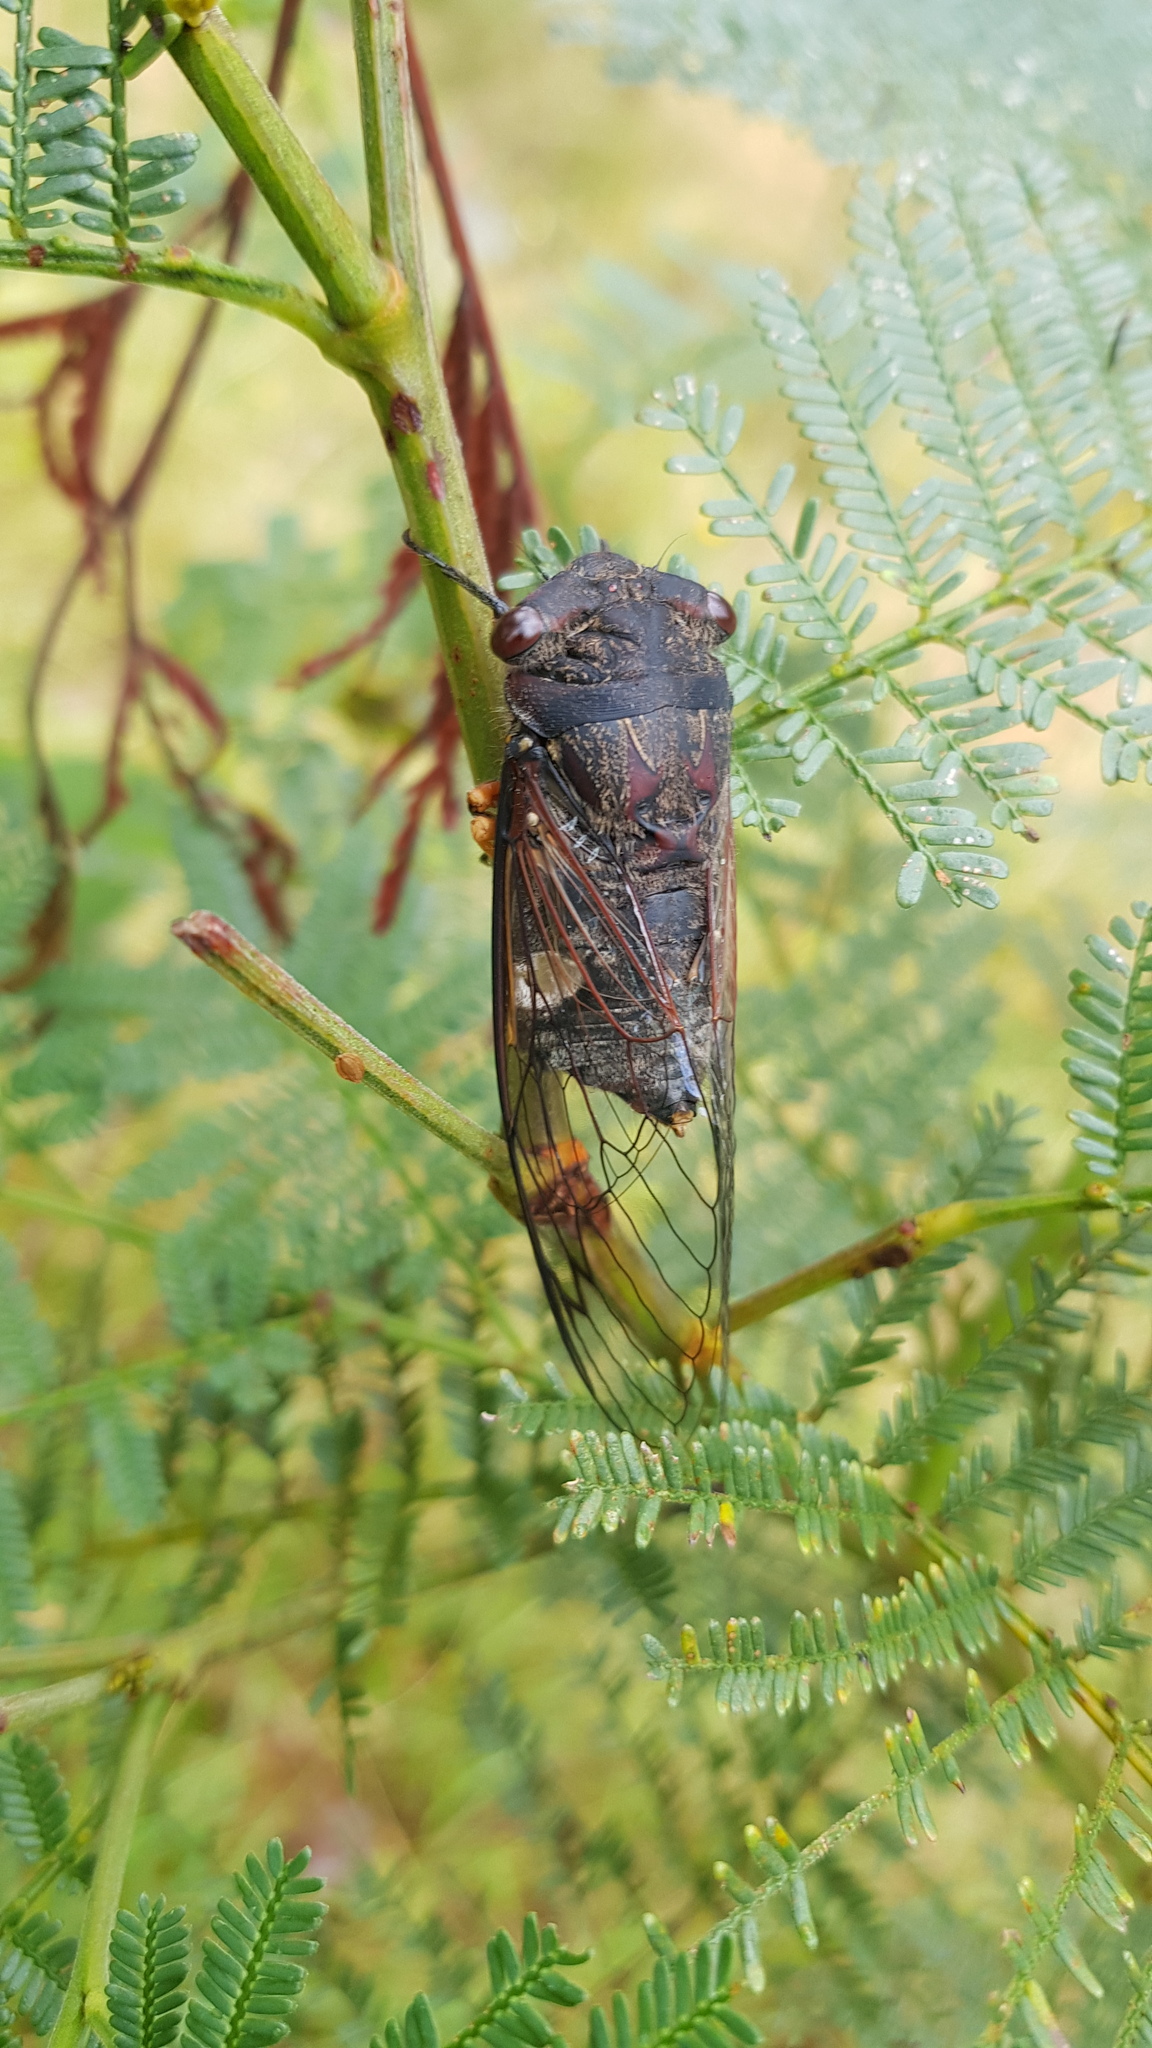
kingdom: Animalia
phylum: Arthropoda
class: Insecta
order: Hemiptera
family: Cicadidae
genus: Psaltoda
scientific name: Psaltoda plaga
